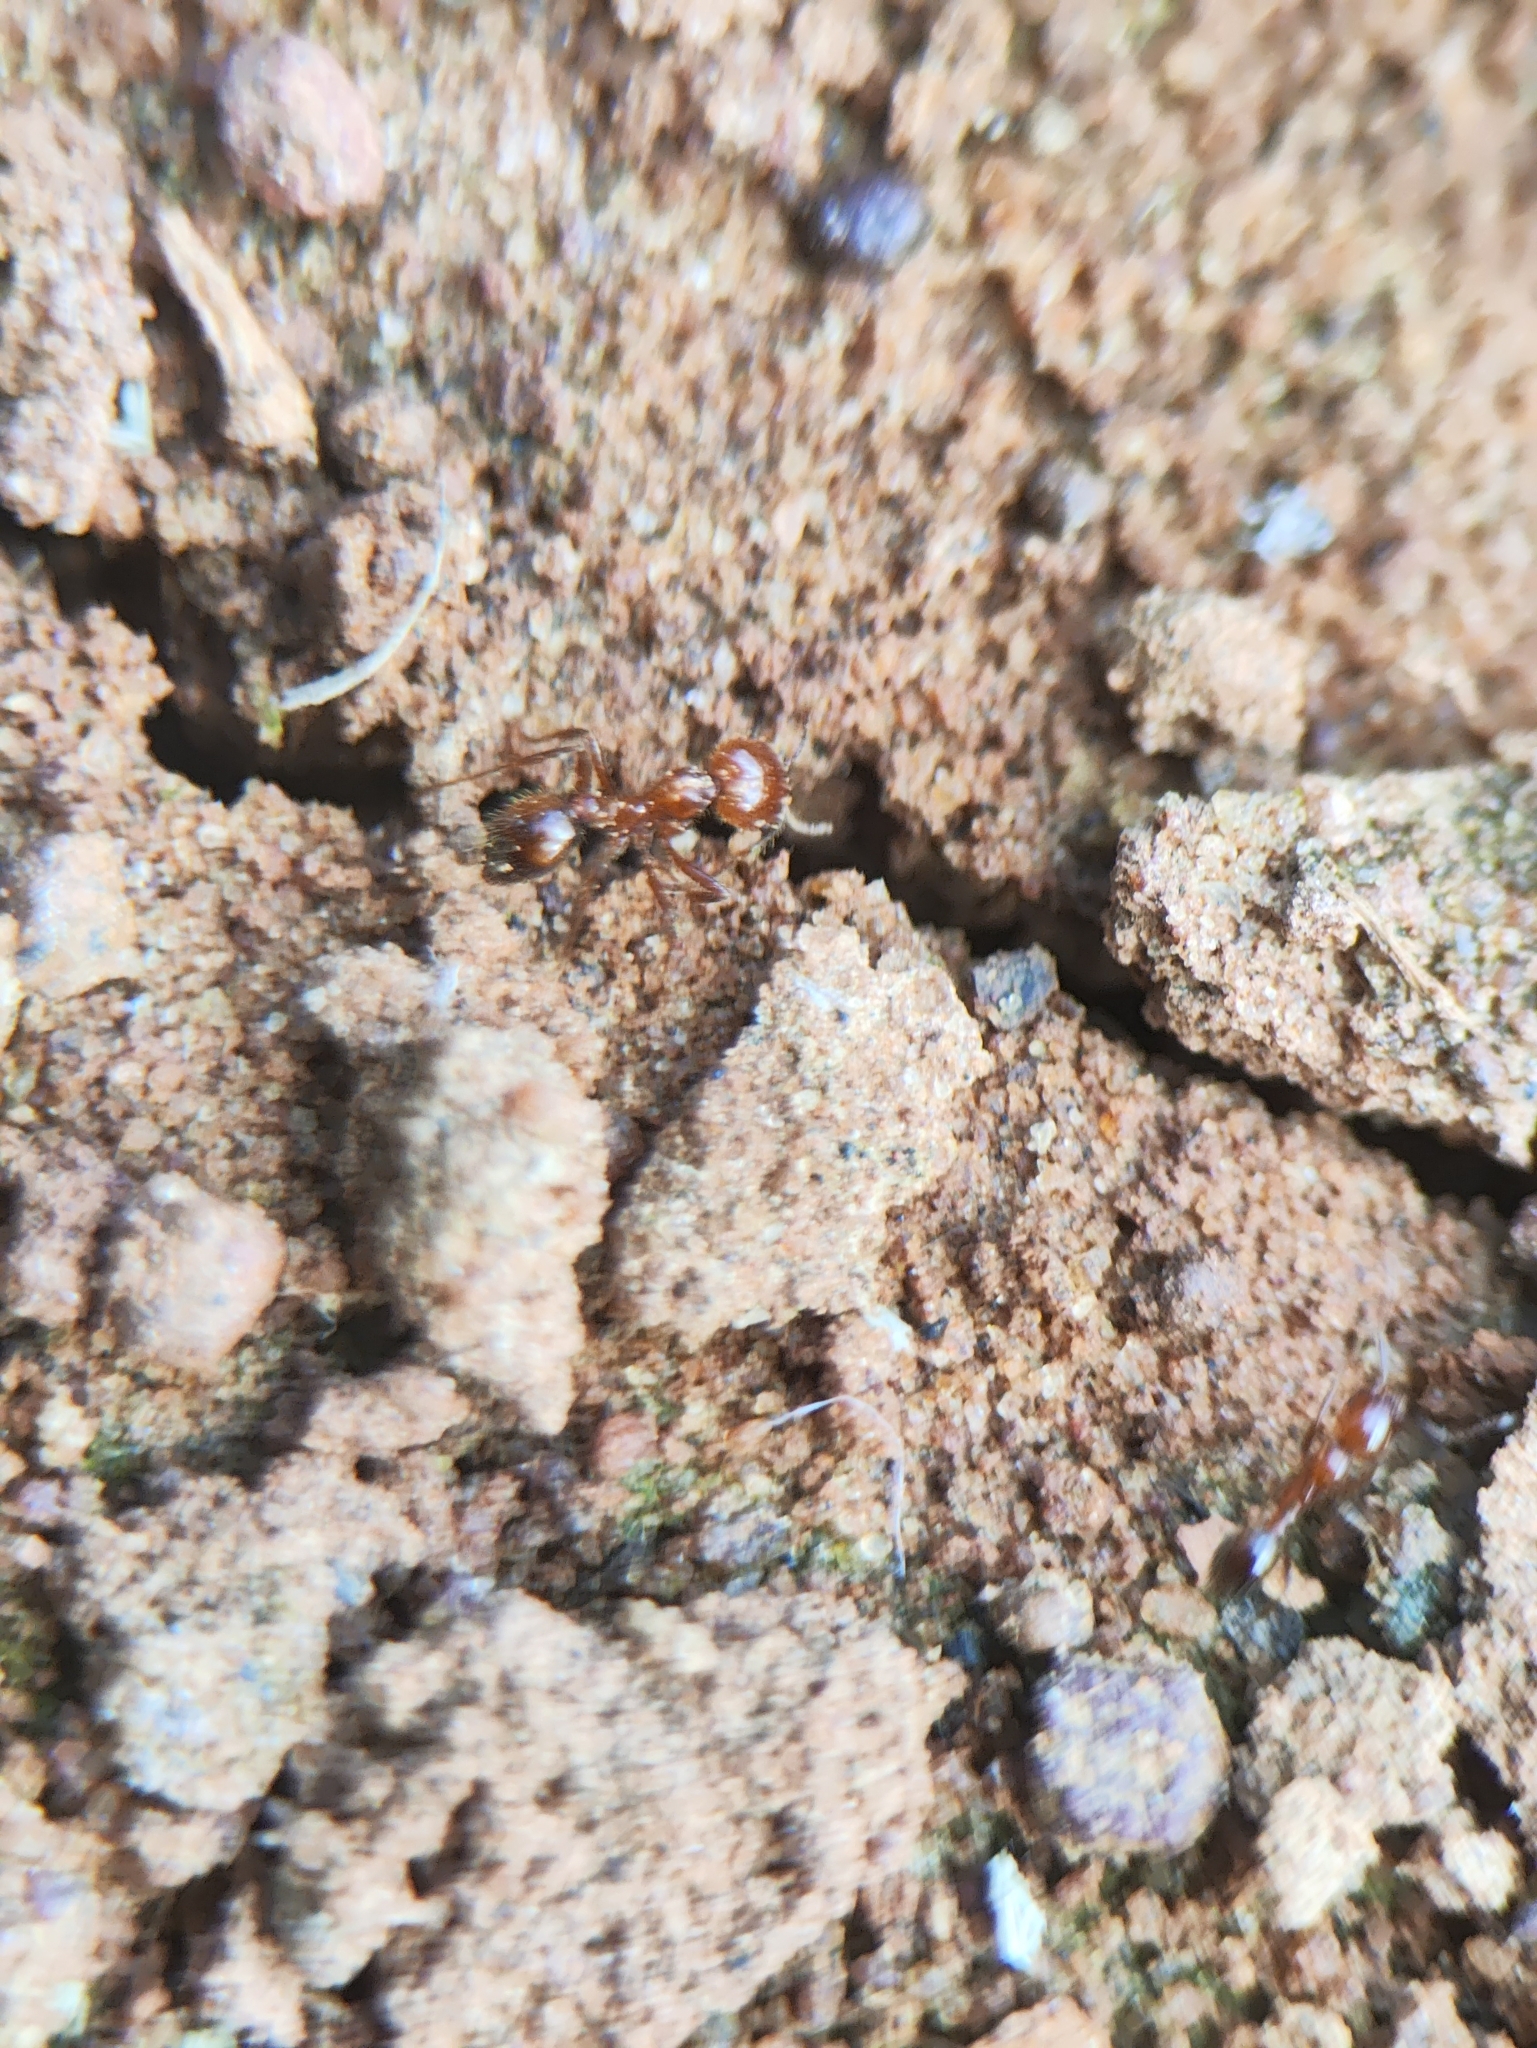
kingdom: Animalia
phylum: Arthropoda
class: Insecta
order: Hymenoptera
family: Formicidae
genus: Solenopsis
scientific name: Solenopsis geminata
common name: Tropical fire ant
